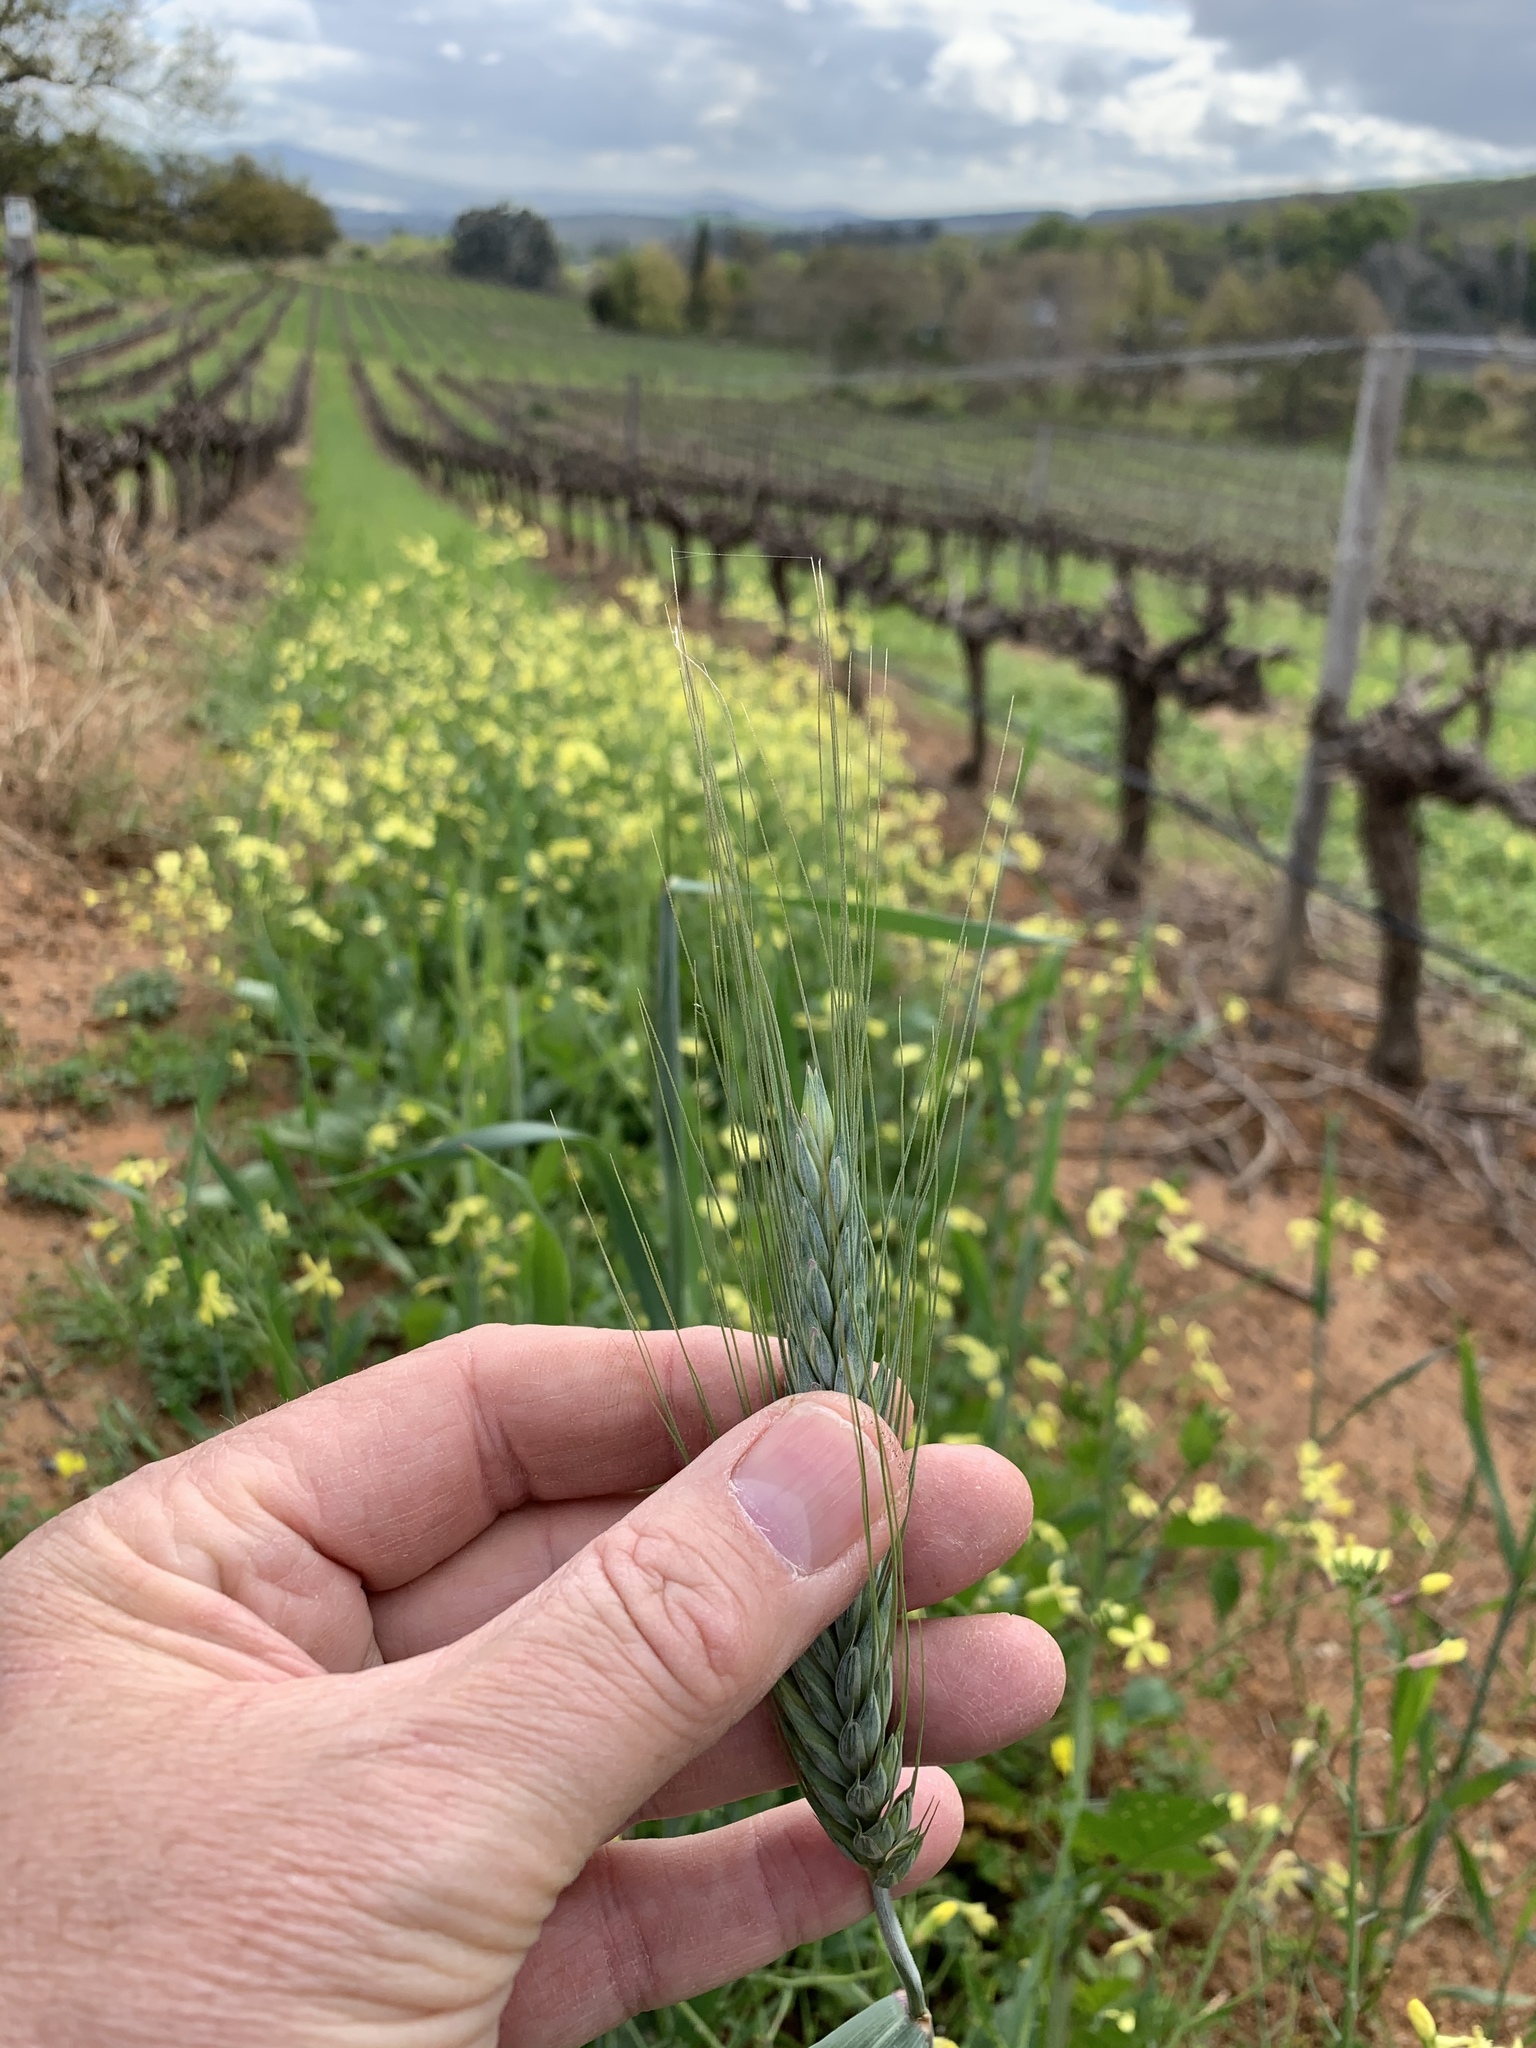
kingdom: Plantae
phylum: Tracheophyta
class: Liliopsida
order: Poales
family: Poaceae
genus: Triticum
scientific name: Triticum aestivum
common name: Common wheat
